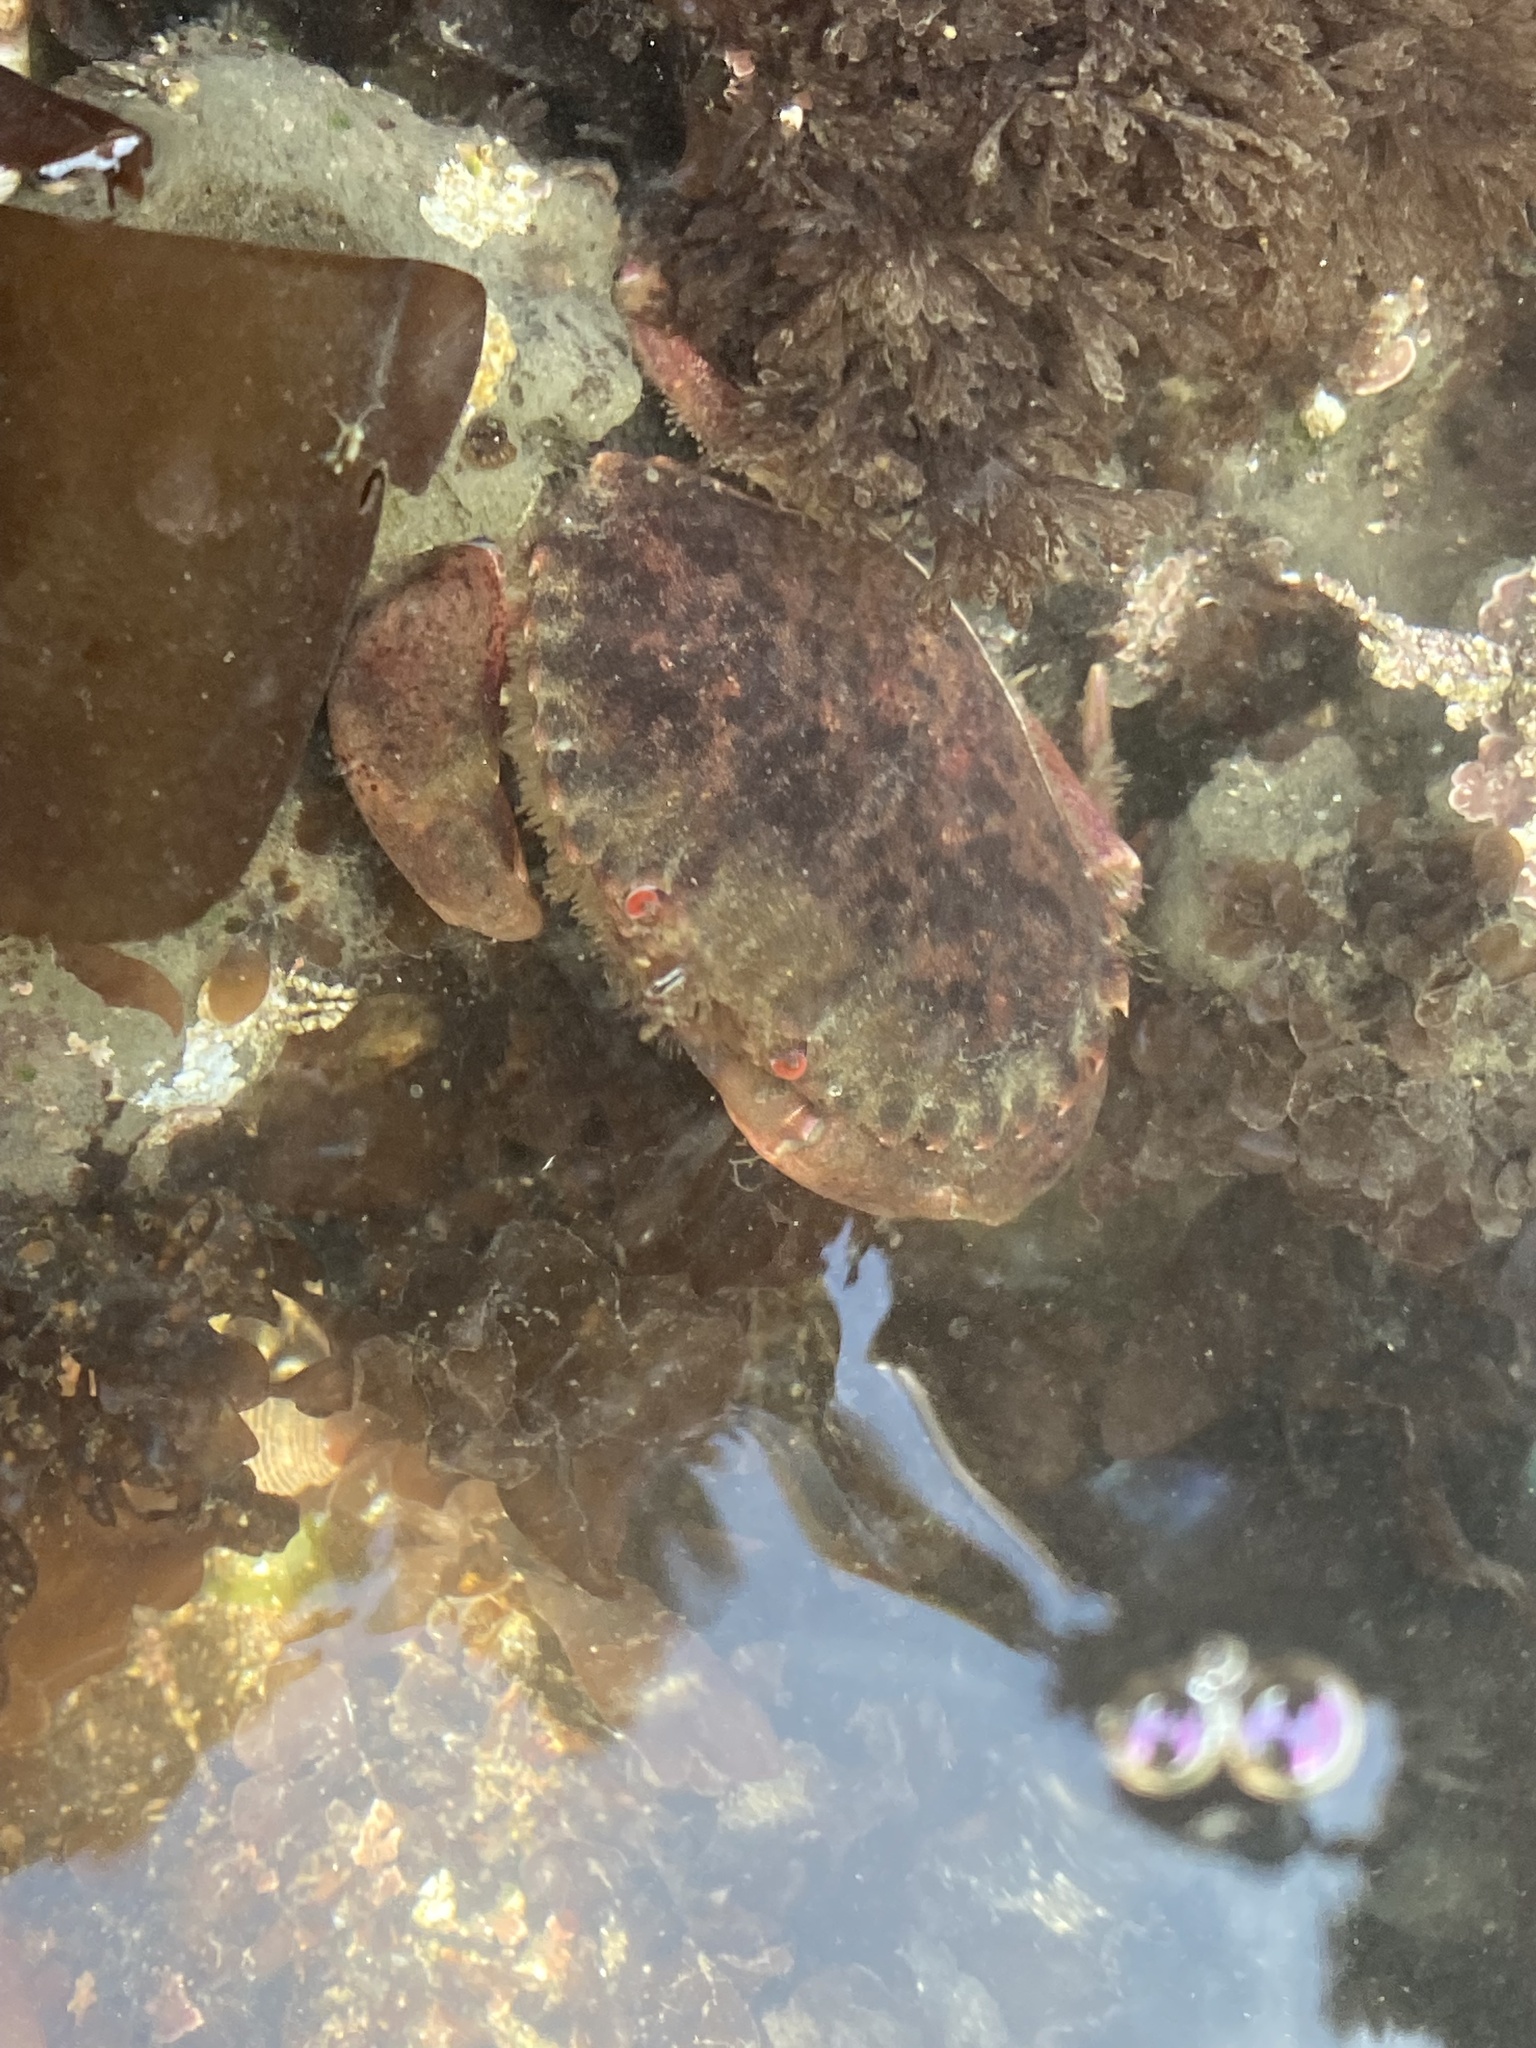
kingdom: Animalia
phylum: Arthropoda
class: Malacostraca
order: Decapoda
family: Cancridae
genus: Romaleon
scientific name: Romaleon antennarium
